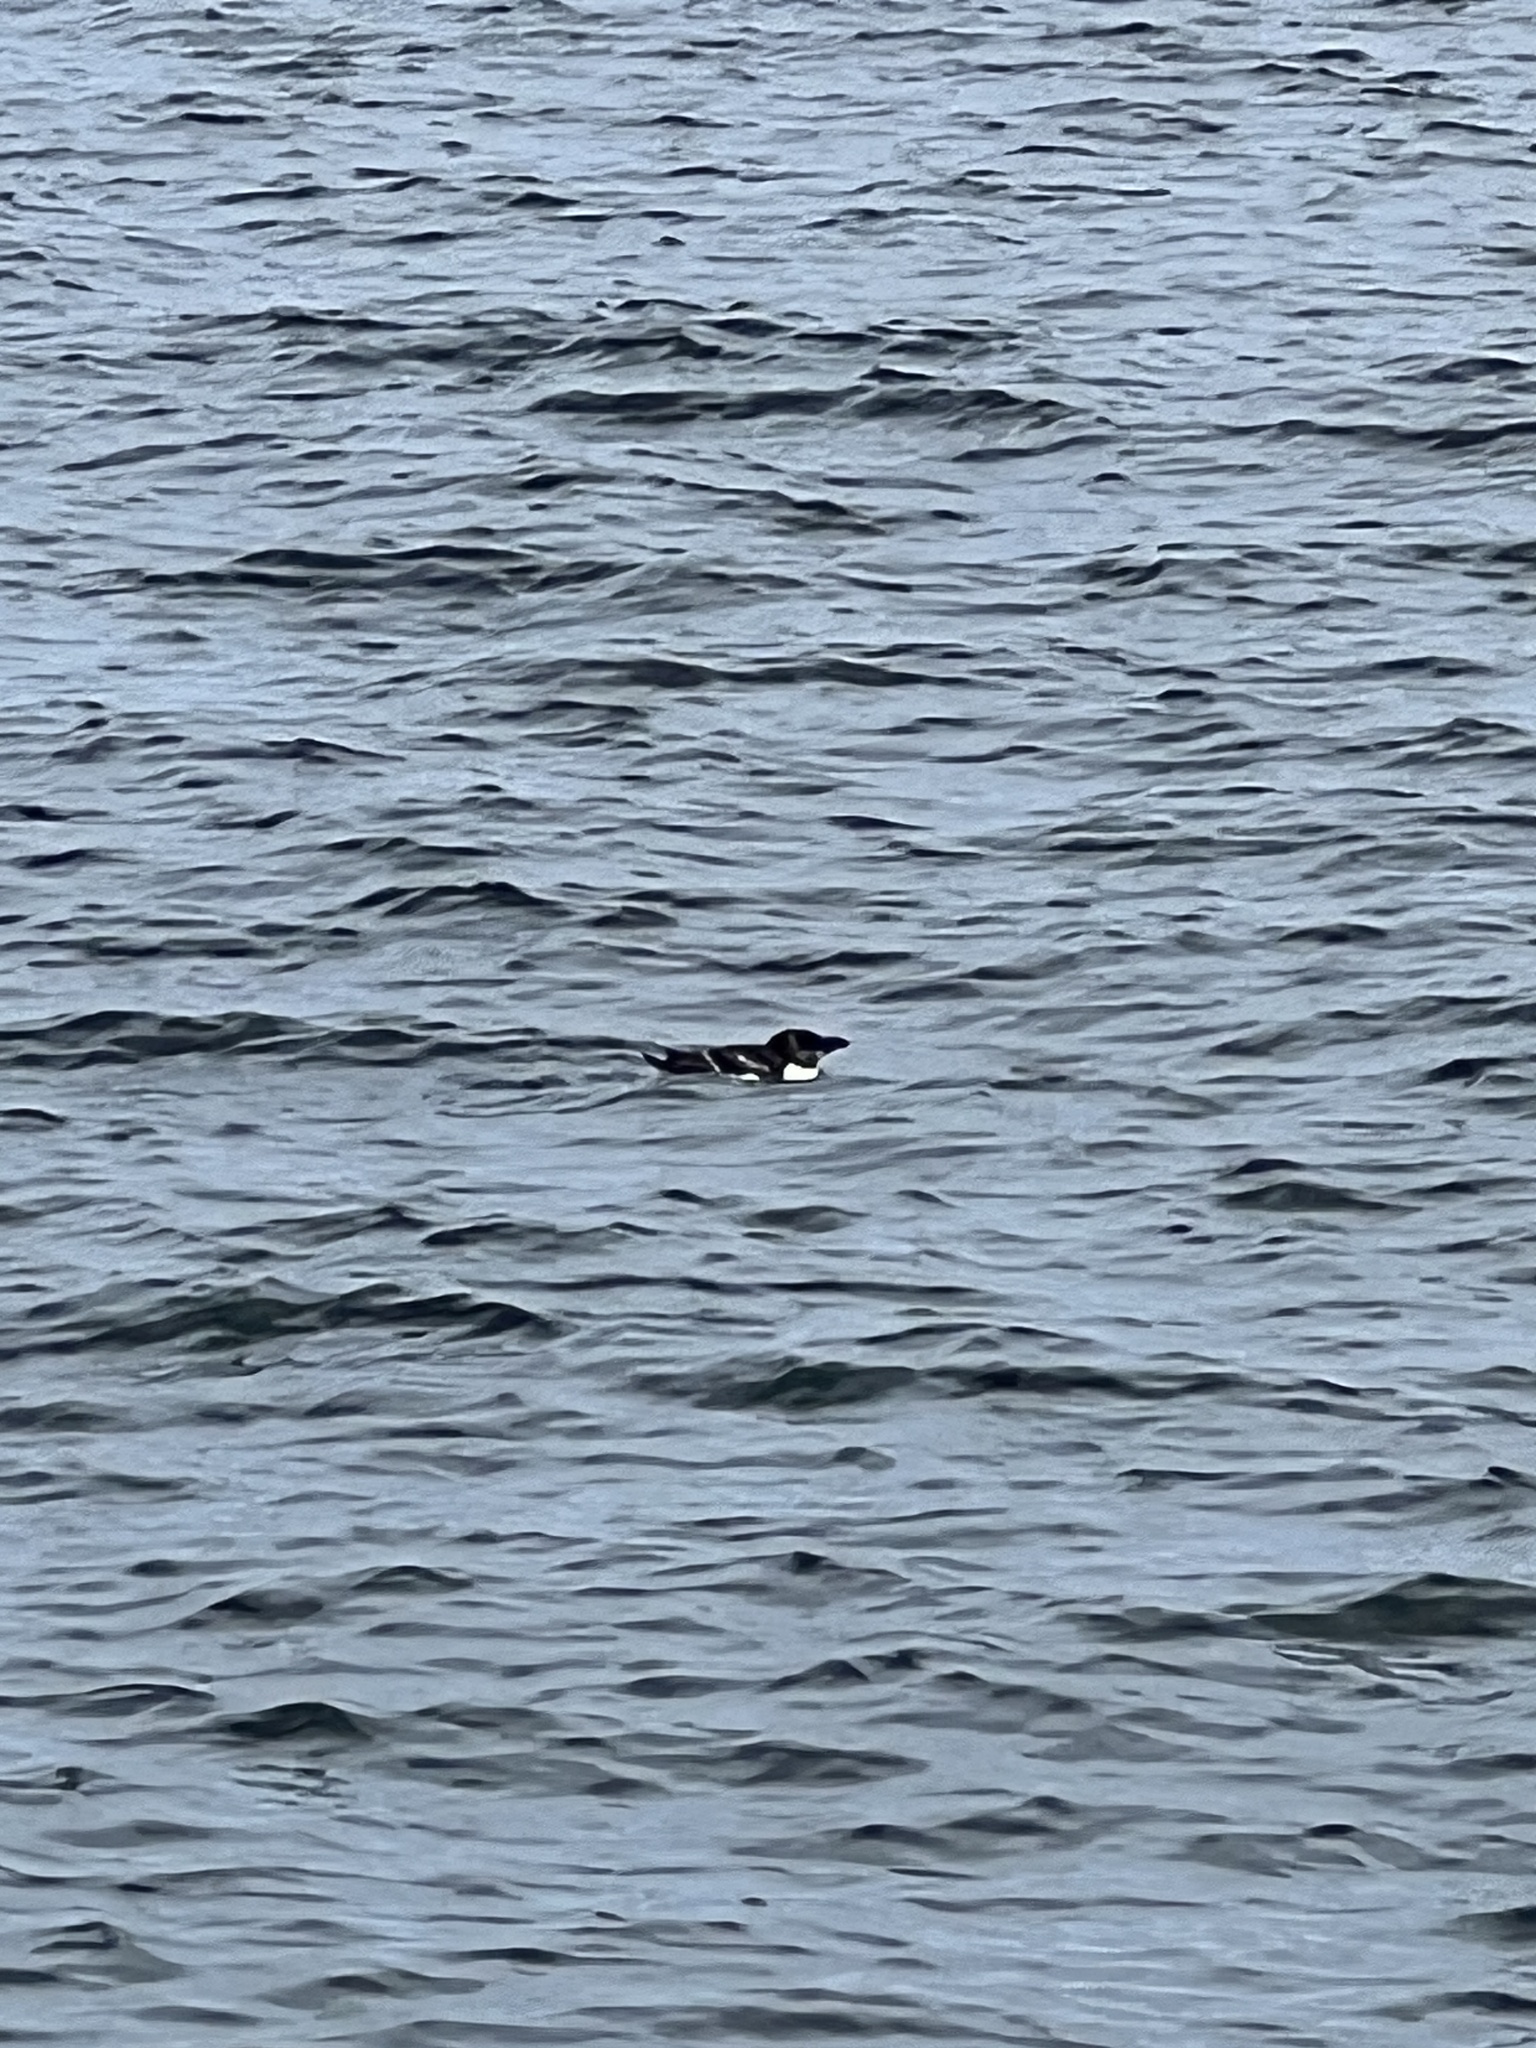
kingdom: Animalia
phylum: Chordata
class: Aves
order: Charadriiformes
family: Alcidae
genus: Alca
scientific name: Alca torda
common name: Razorbill
